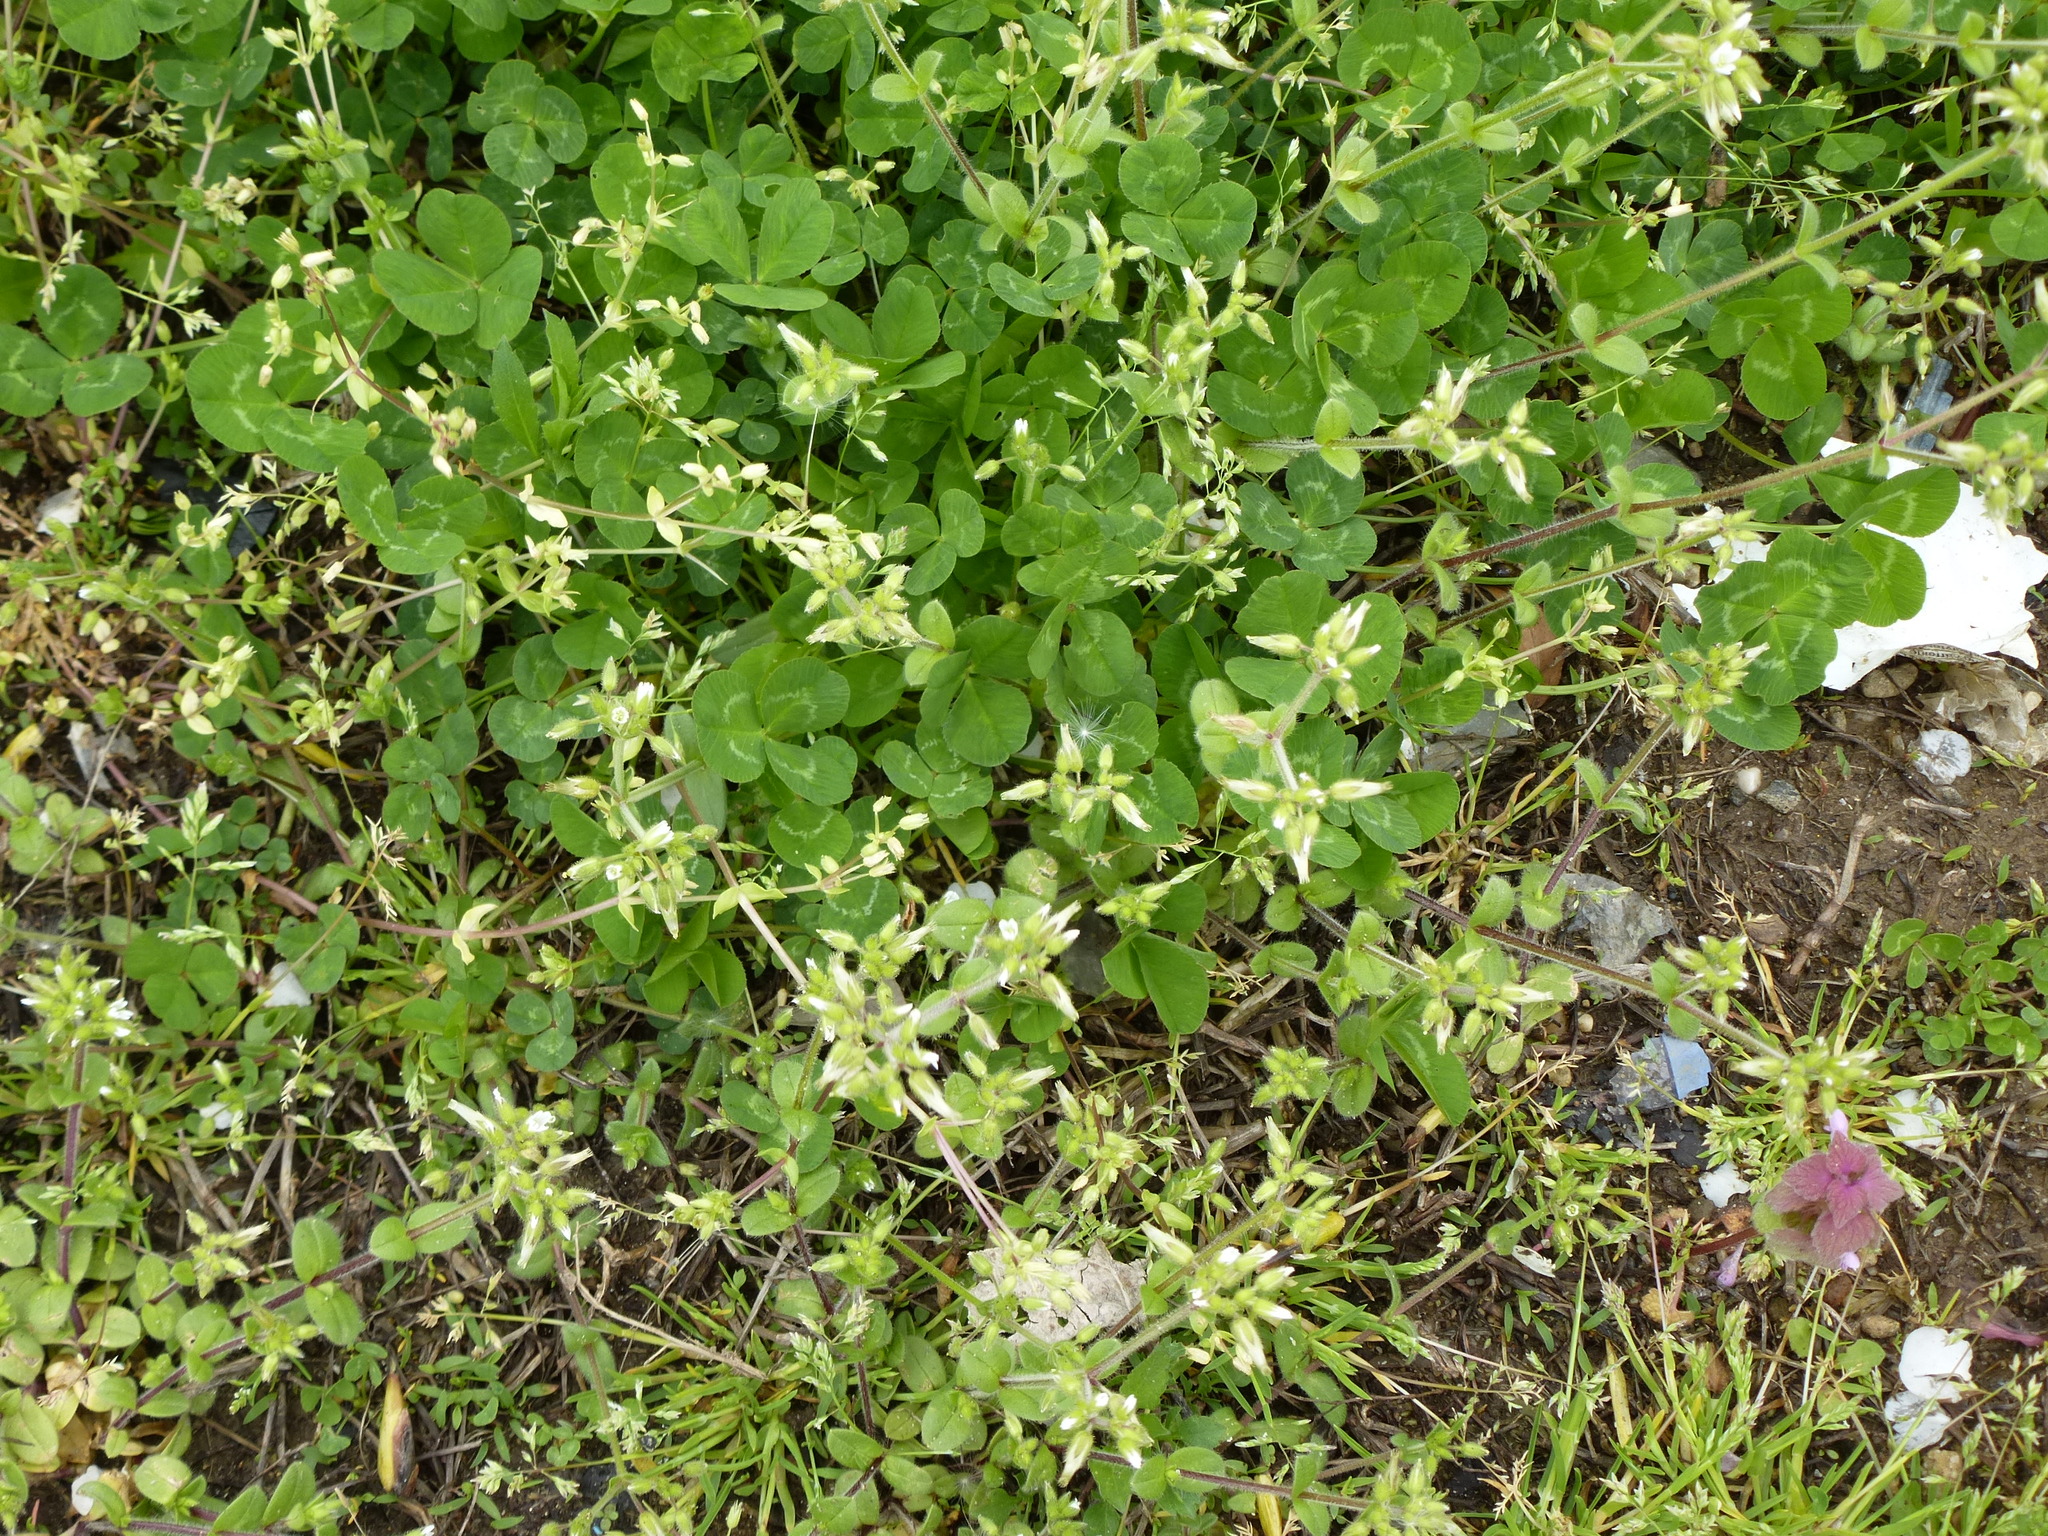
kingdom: Plantae
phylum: Tracheophyta
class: Magnoliopsida
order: Fabales
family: Fabaceae
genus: Trifolium
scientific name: Trifolium repens
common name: White clover
